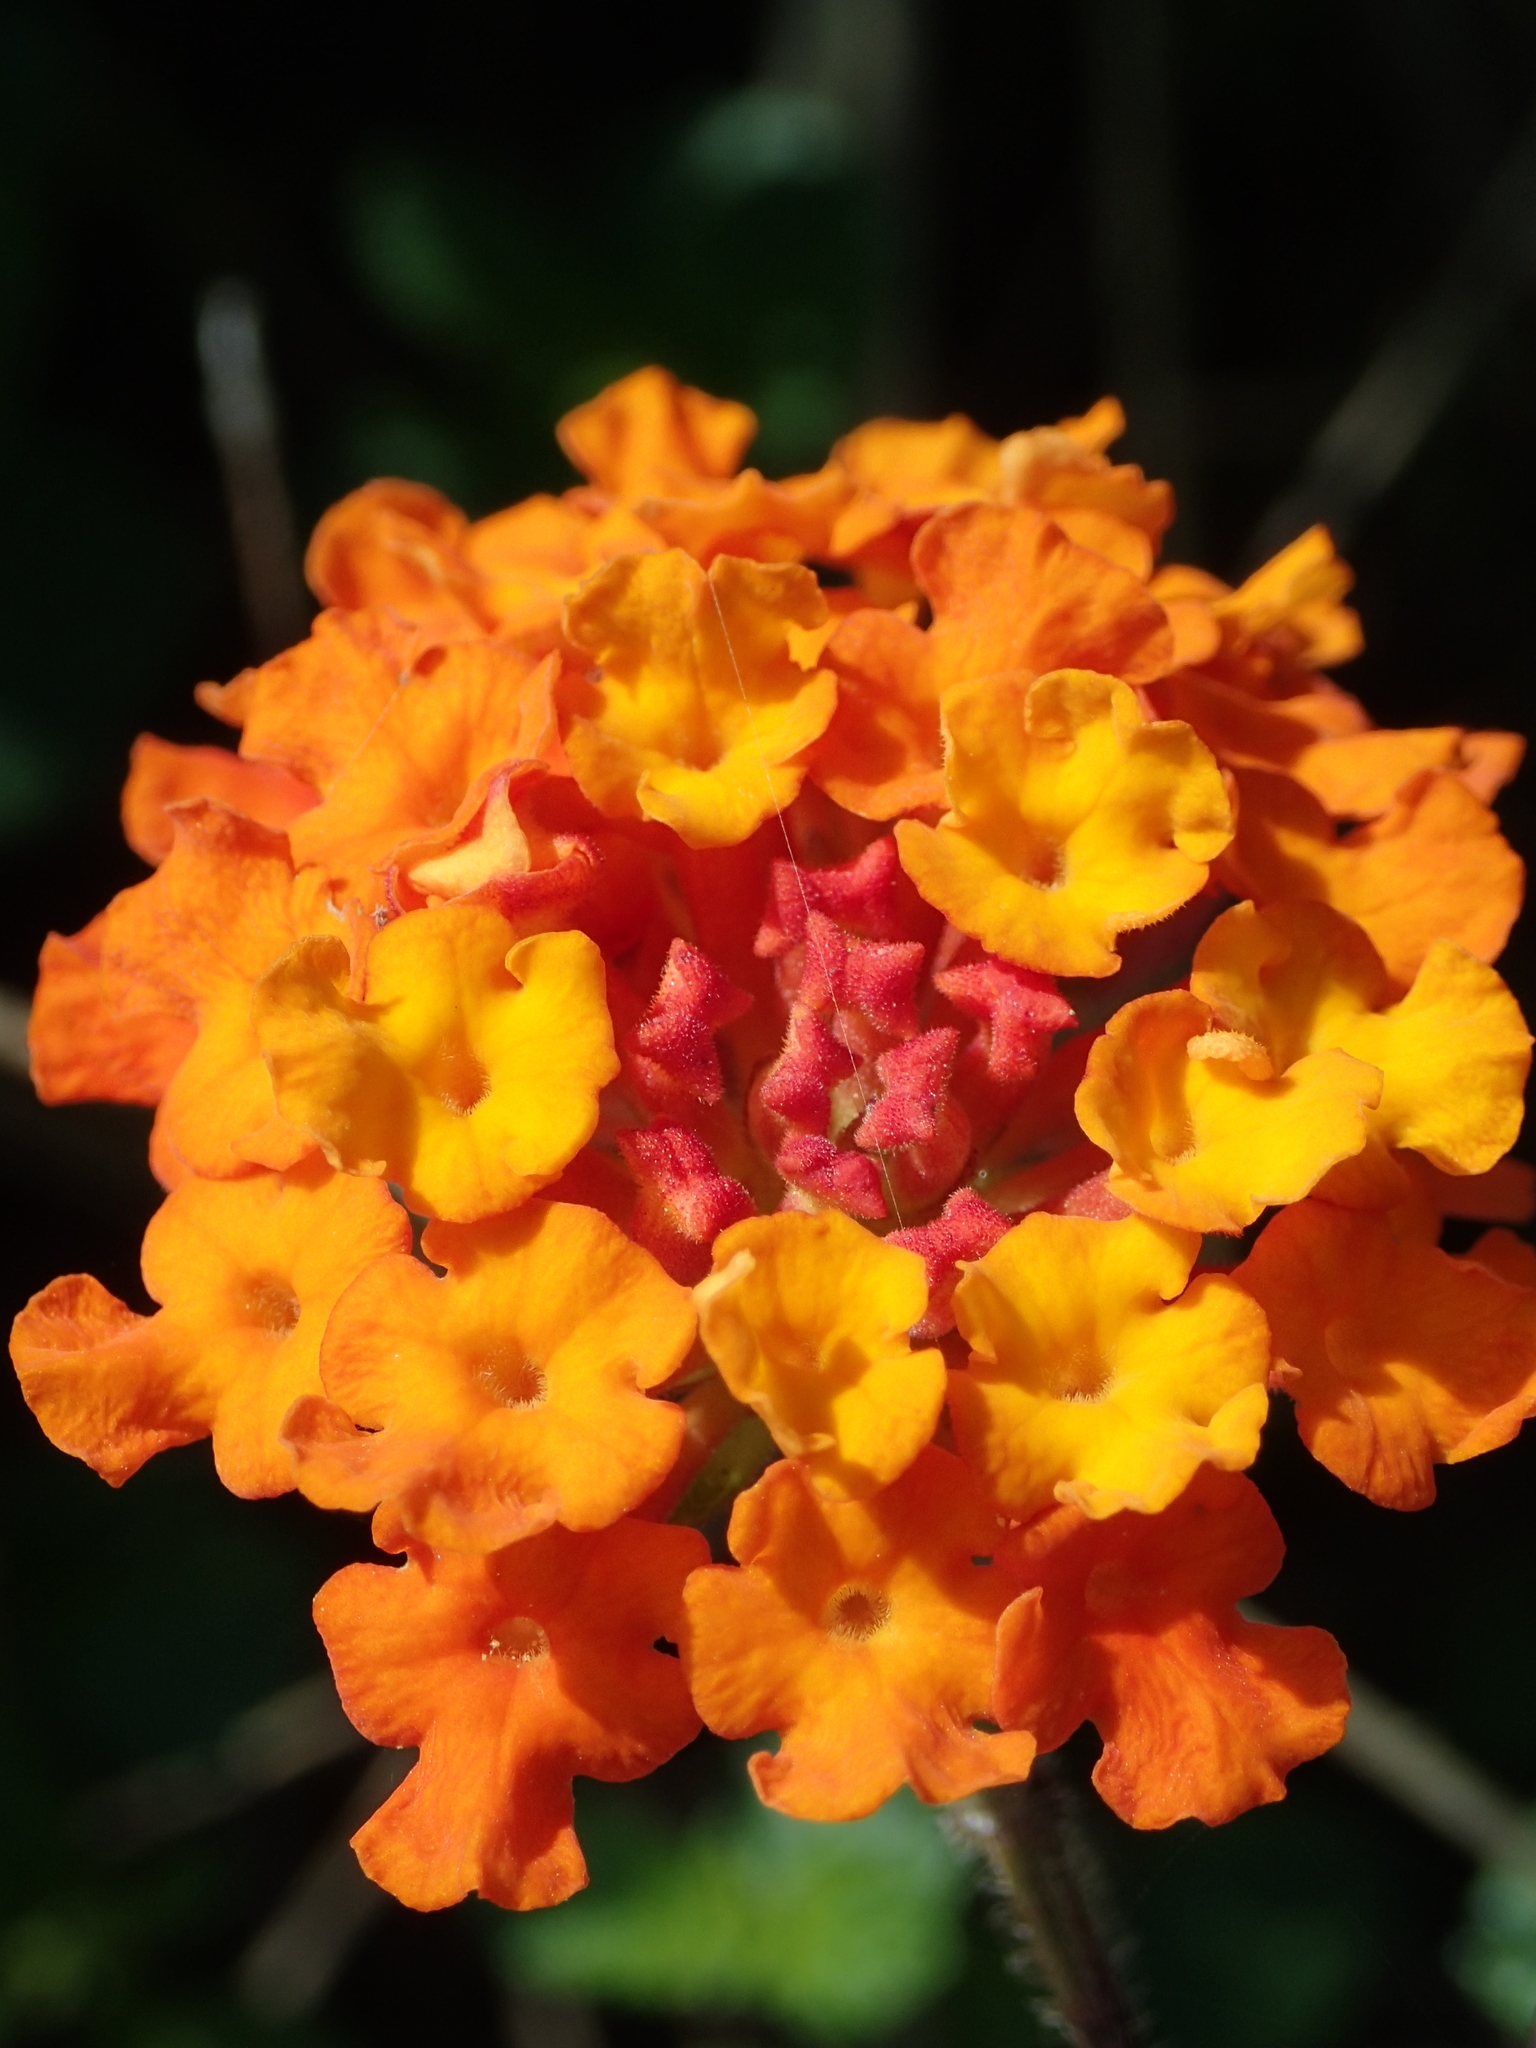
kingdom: Plantae
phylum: Tracheophyta
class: Magnoliopsida
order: Lamiales
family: Verbenaceae
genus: Lantana
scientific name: Lantana camara
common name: Lantana
